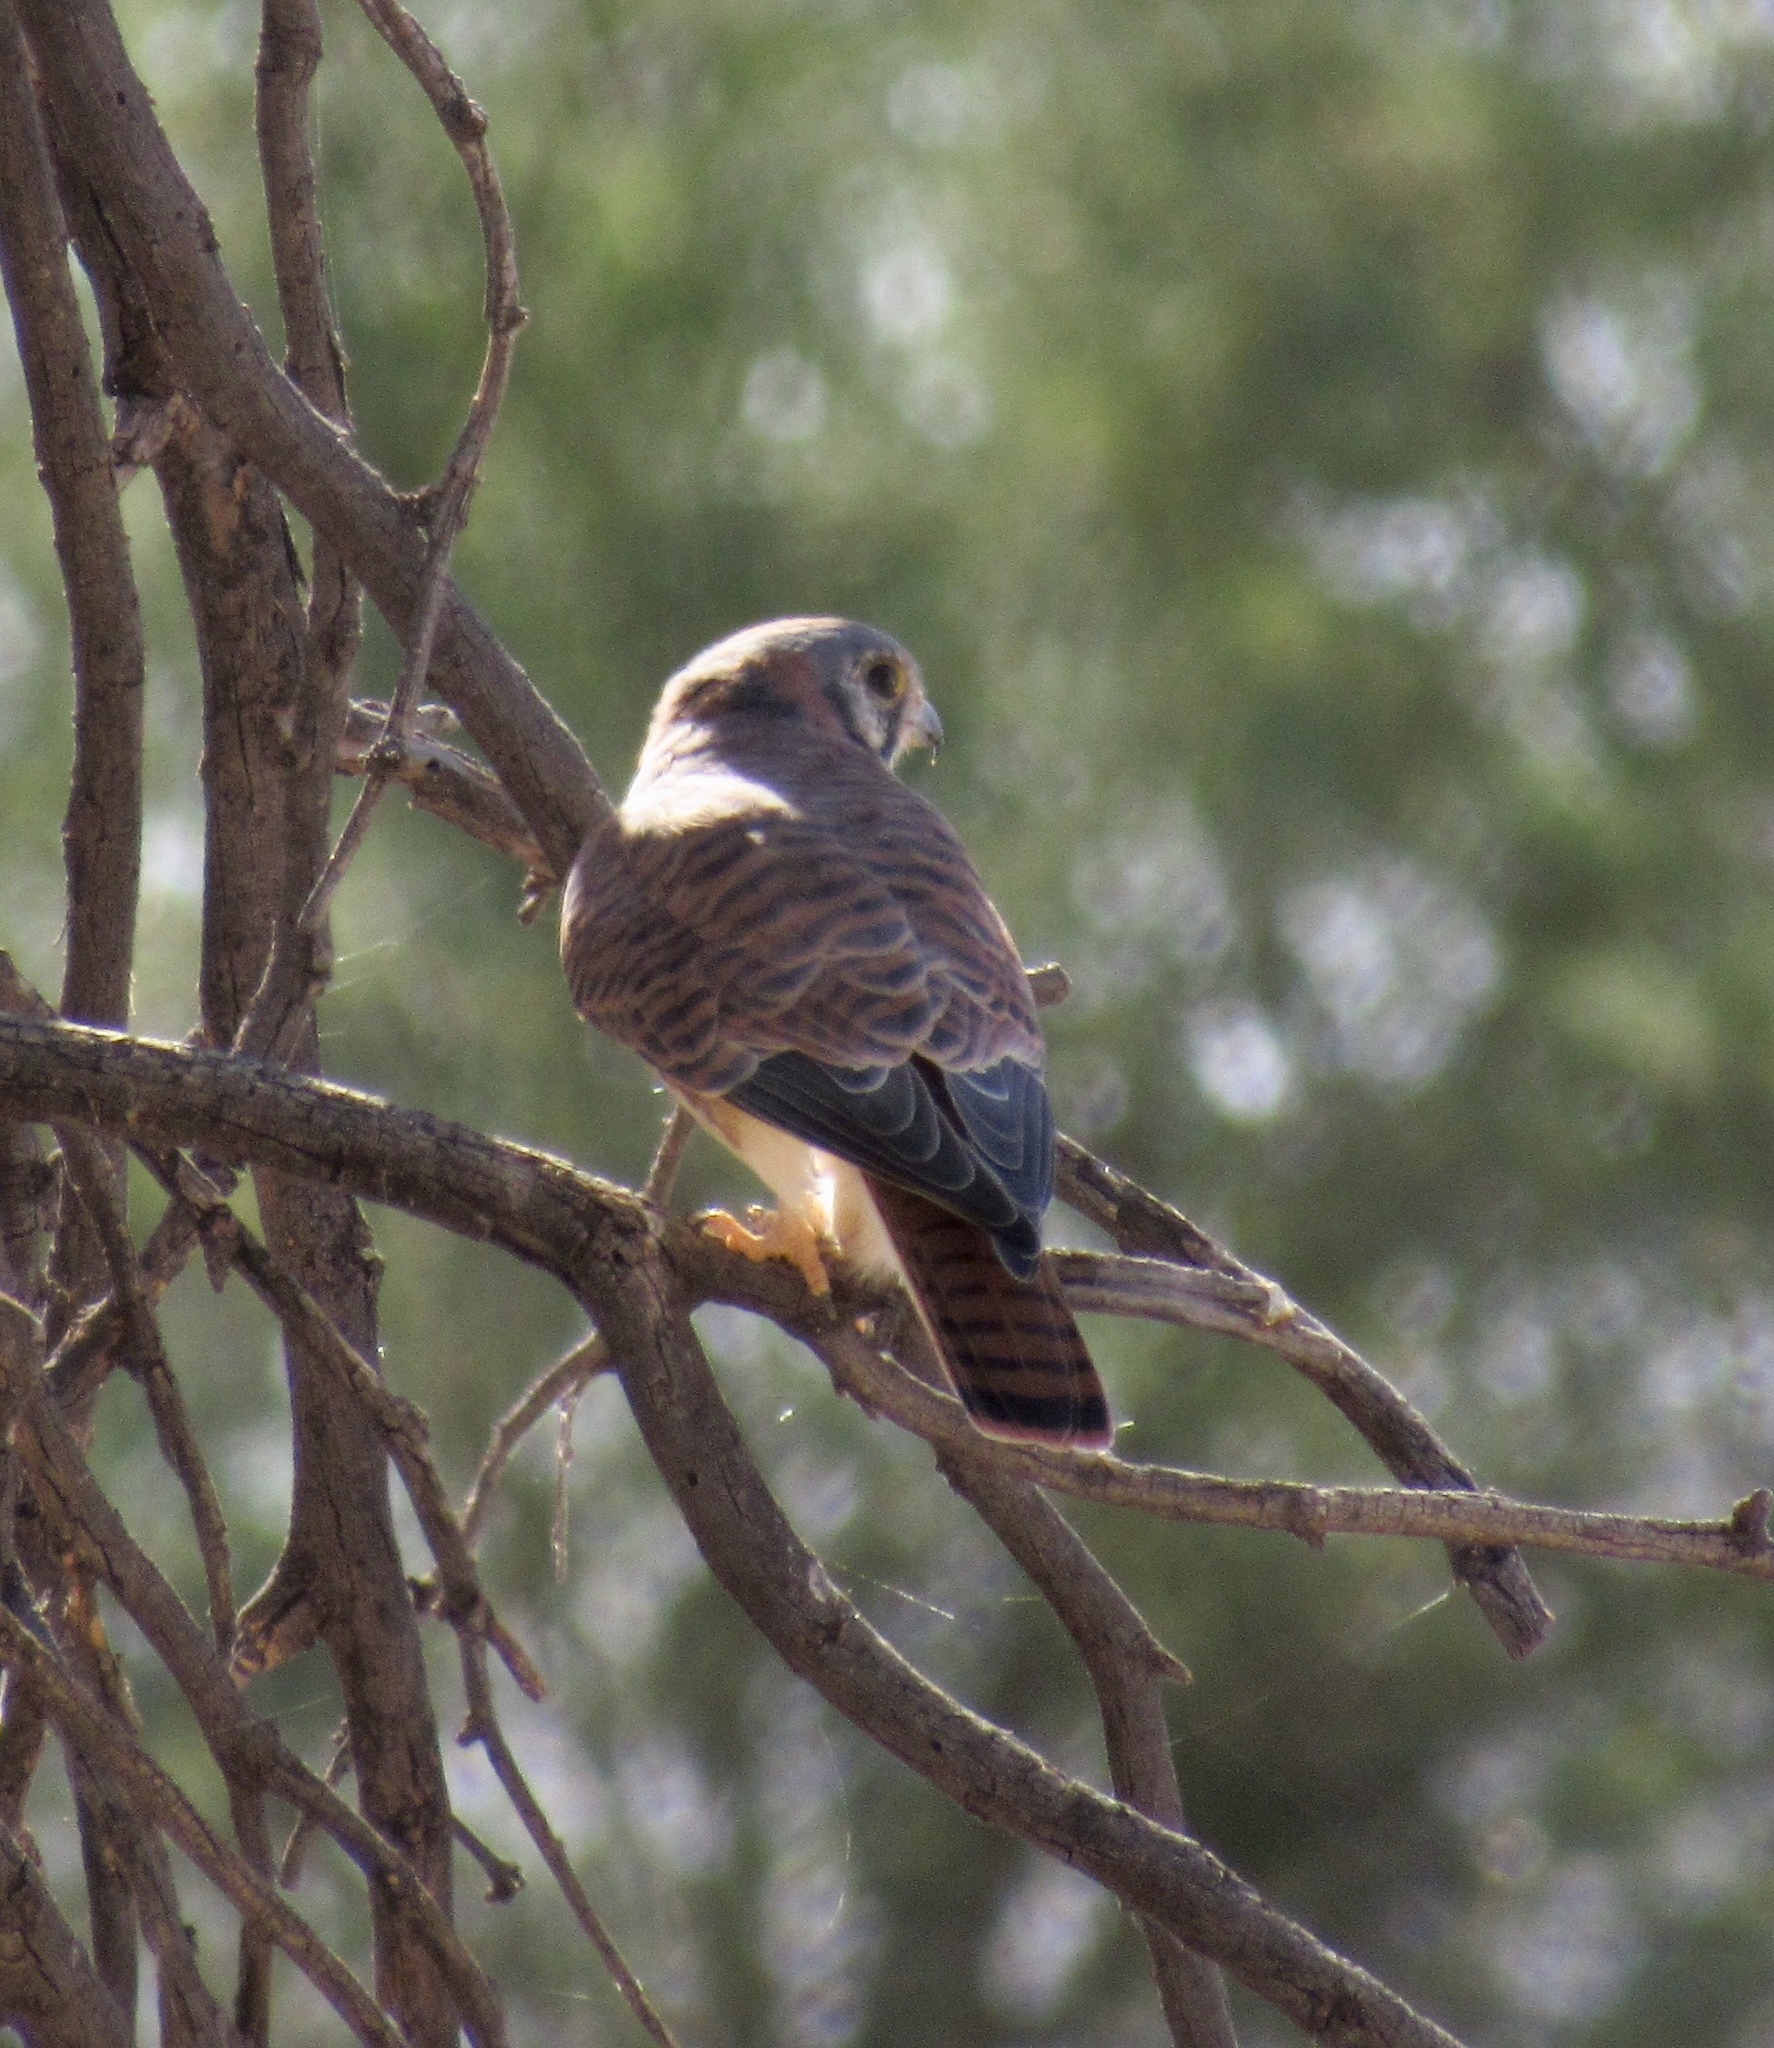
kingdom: Animalia
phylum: Chordata
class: Aves
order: Falconiformes
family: Falconidae
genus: Falco
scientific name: Falco sparverius
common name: American kestrel
